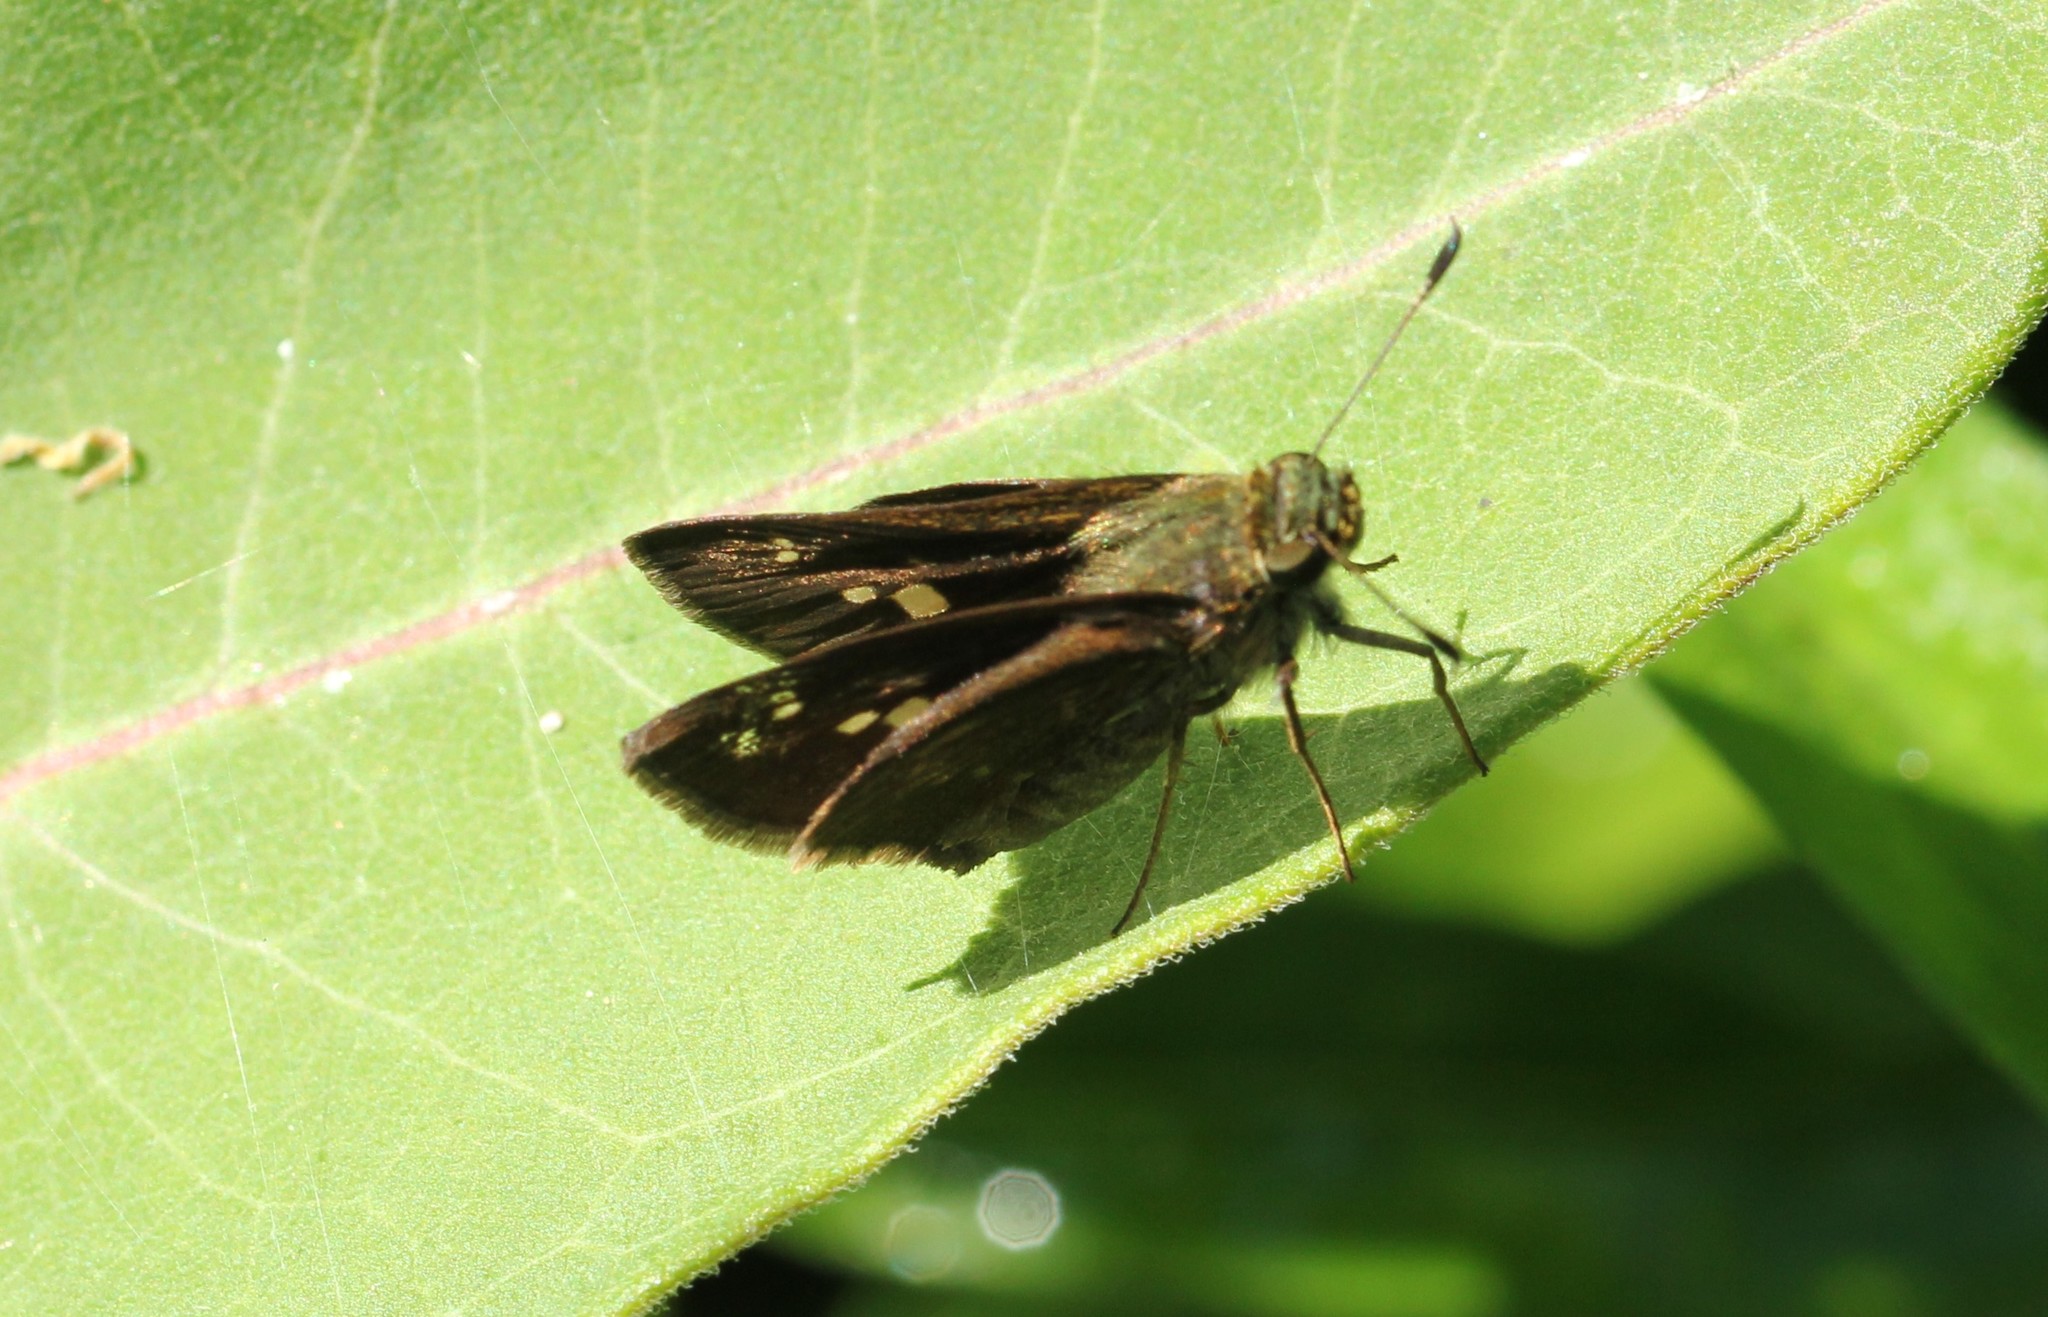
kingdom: Animalia
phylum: Arthropoda
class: Insecta
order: Lepidoptera
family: Hesperiidae
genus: Vernia
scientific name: Vernia verna
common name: Little glassywing
